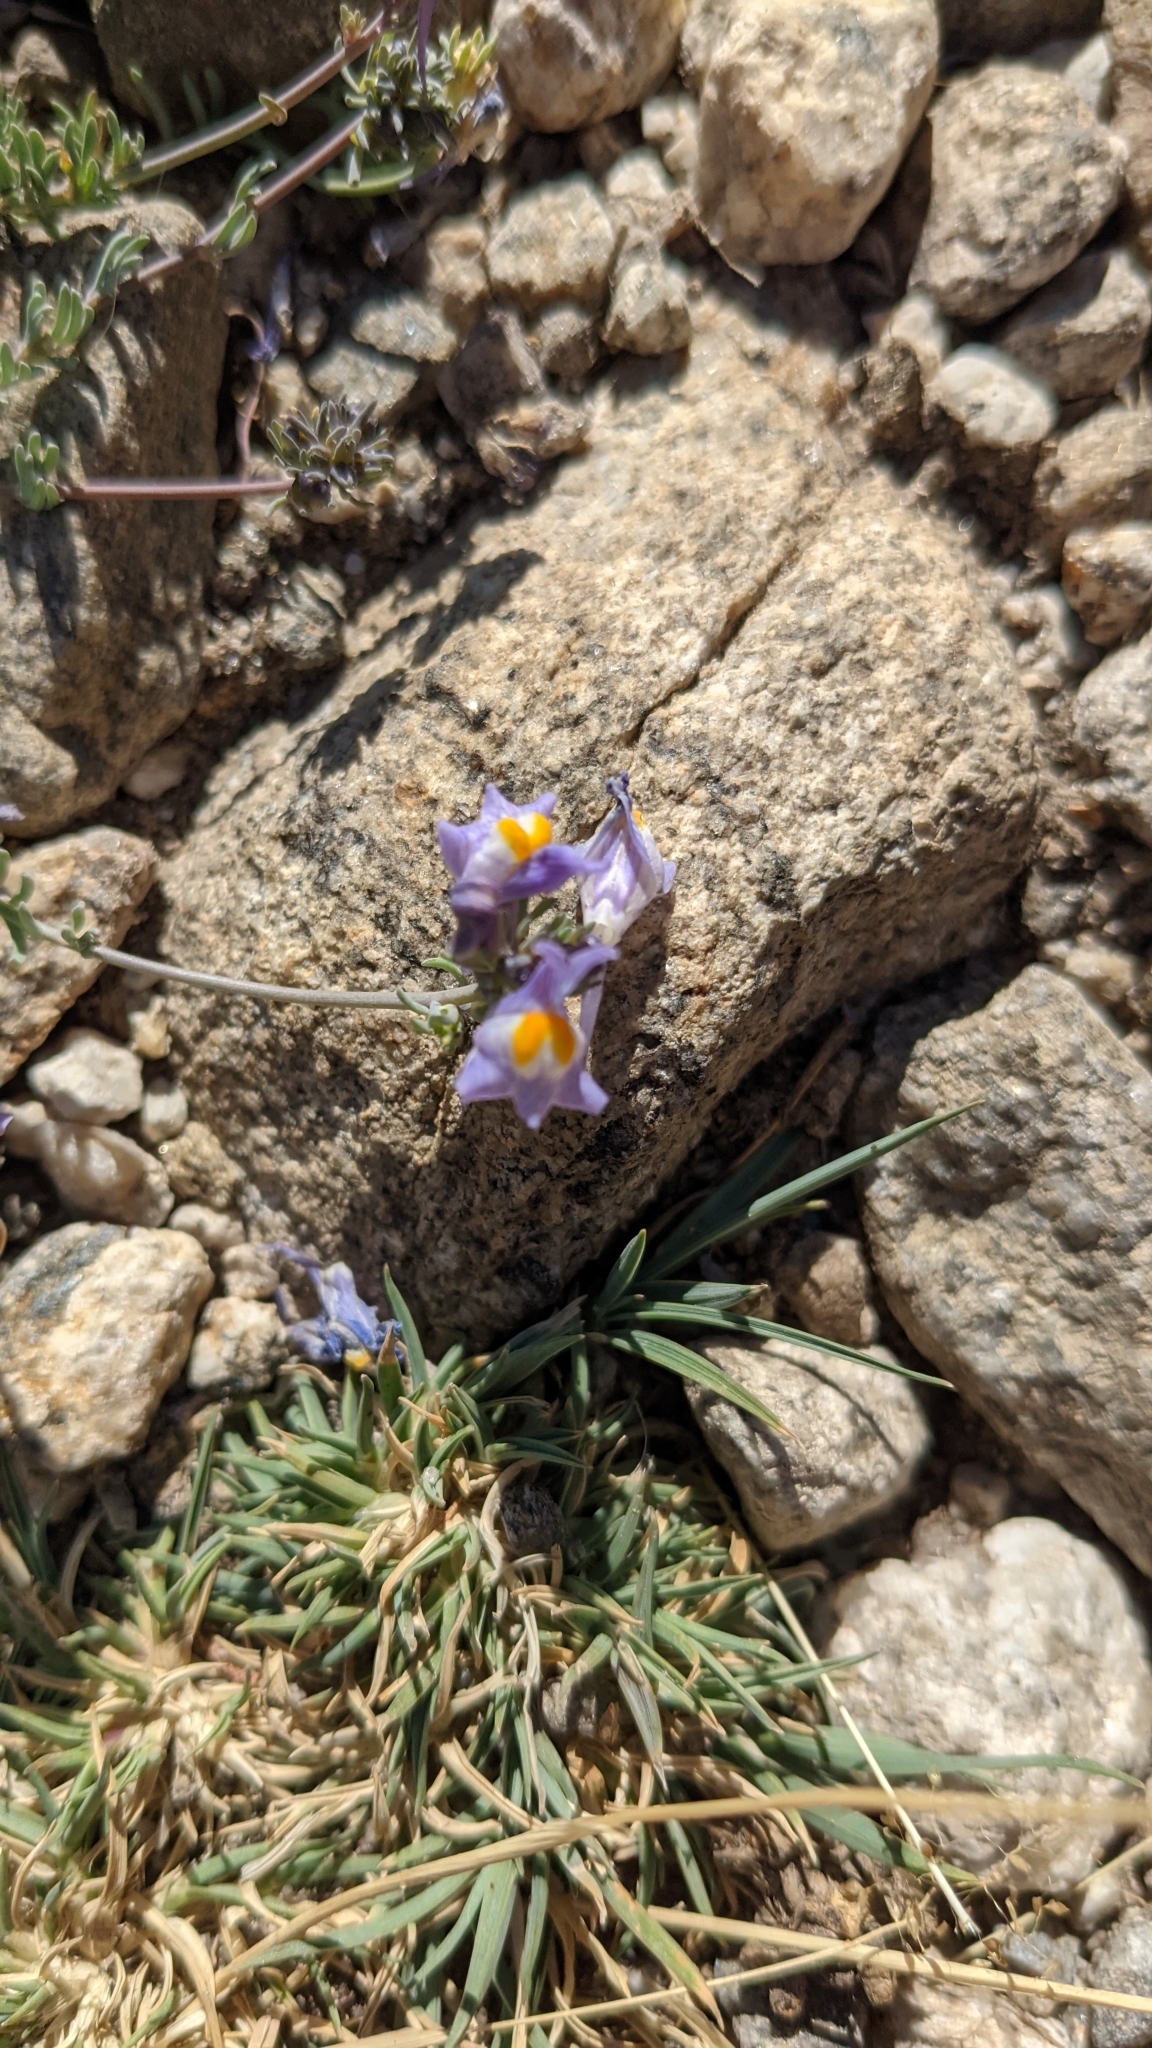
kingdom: Plantae
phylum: Tracheophyta
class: Magnoliopsida
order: Lamiales
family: Plantaginaceae
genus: Linaria
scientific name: Linaria alpina
